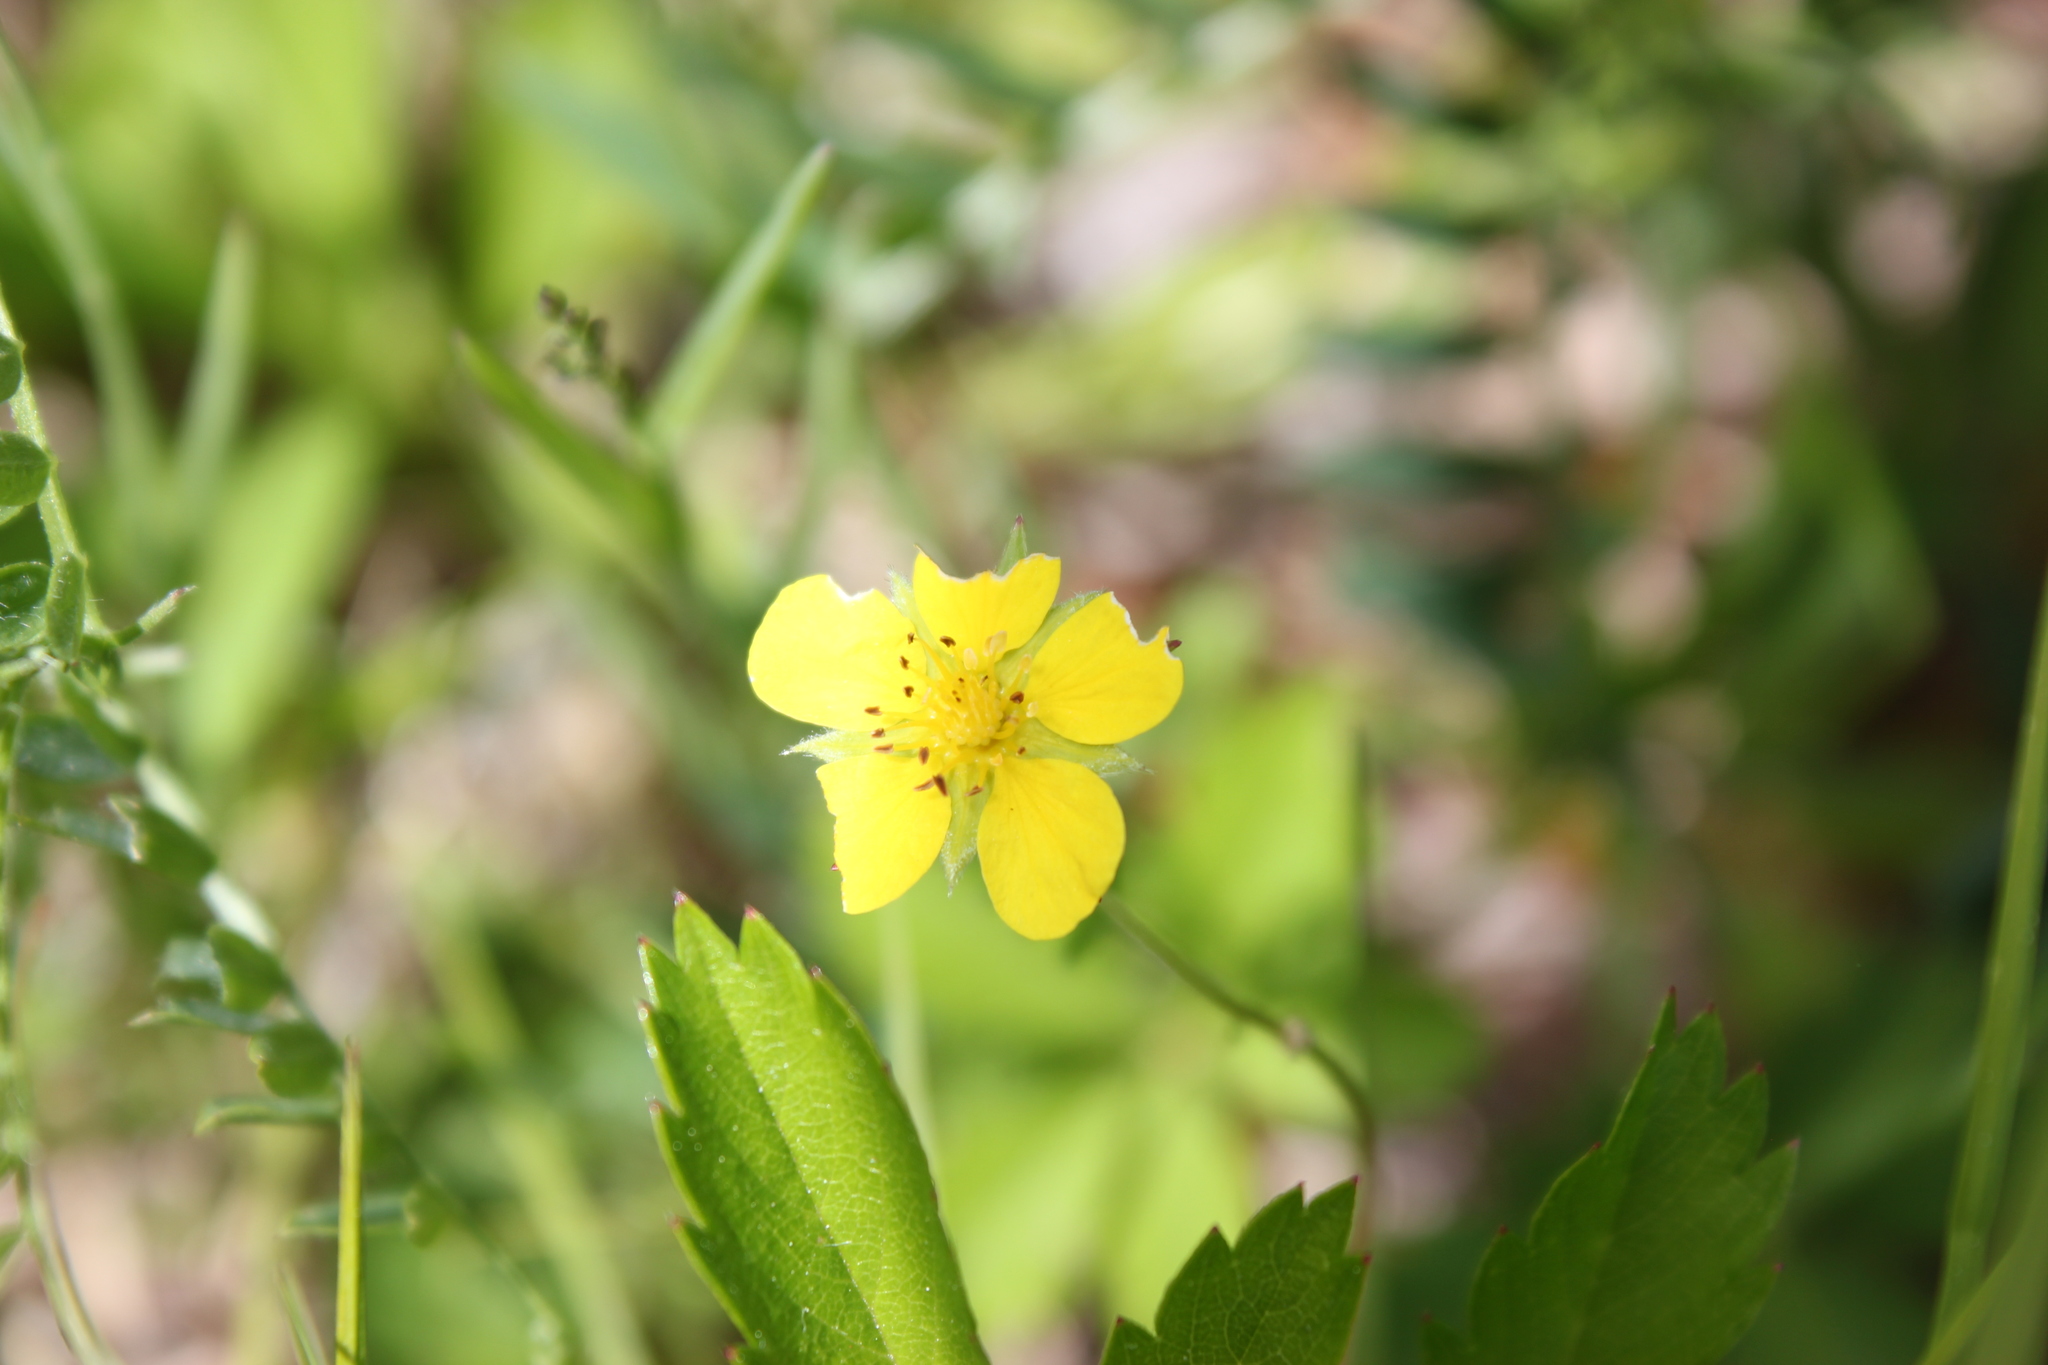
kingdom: Plantae
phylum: Tracheophyta
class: Magnoliopsida
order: Rosales
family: Rosaceae
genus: Potentilla
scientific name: Potentilla simplex
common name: Old field cinquefoil
